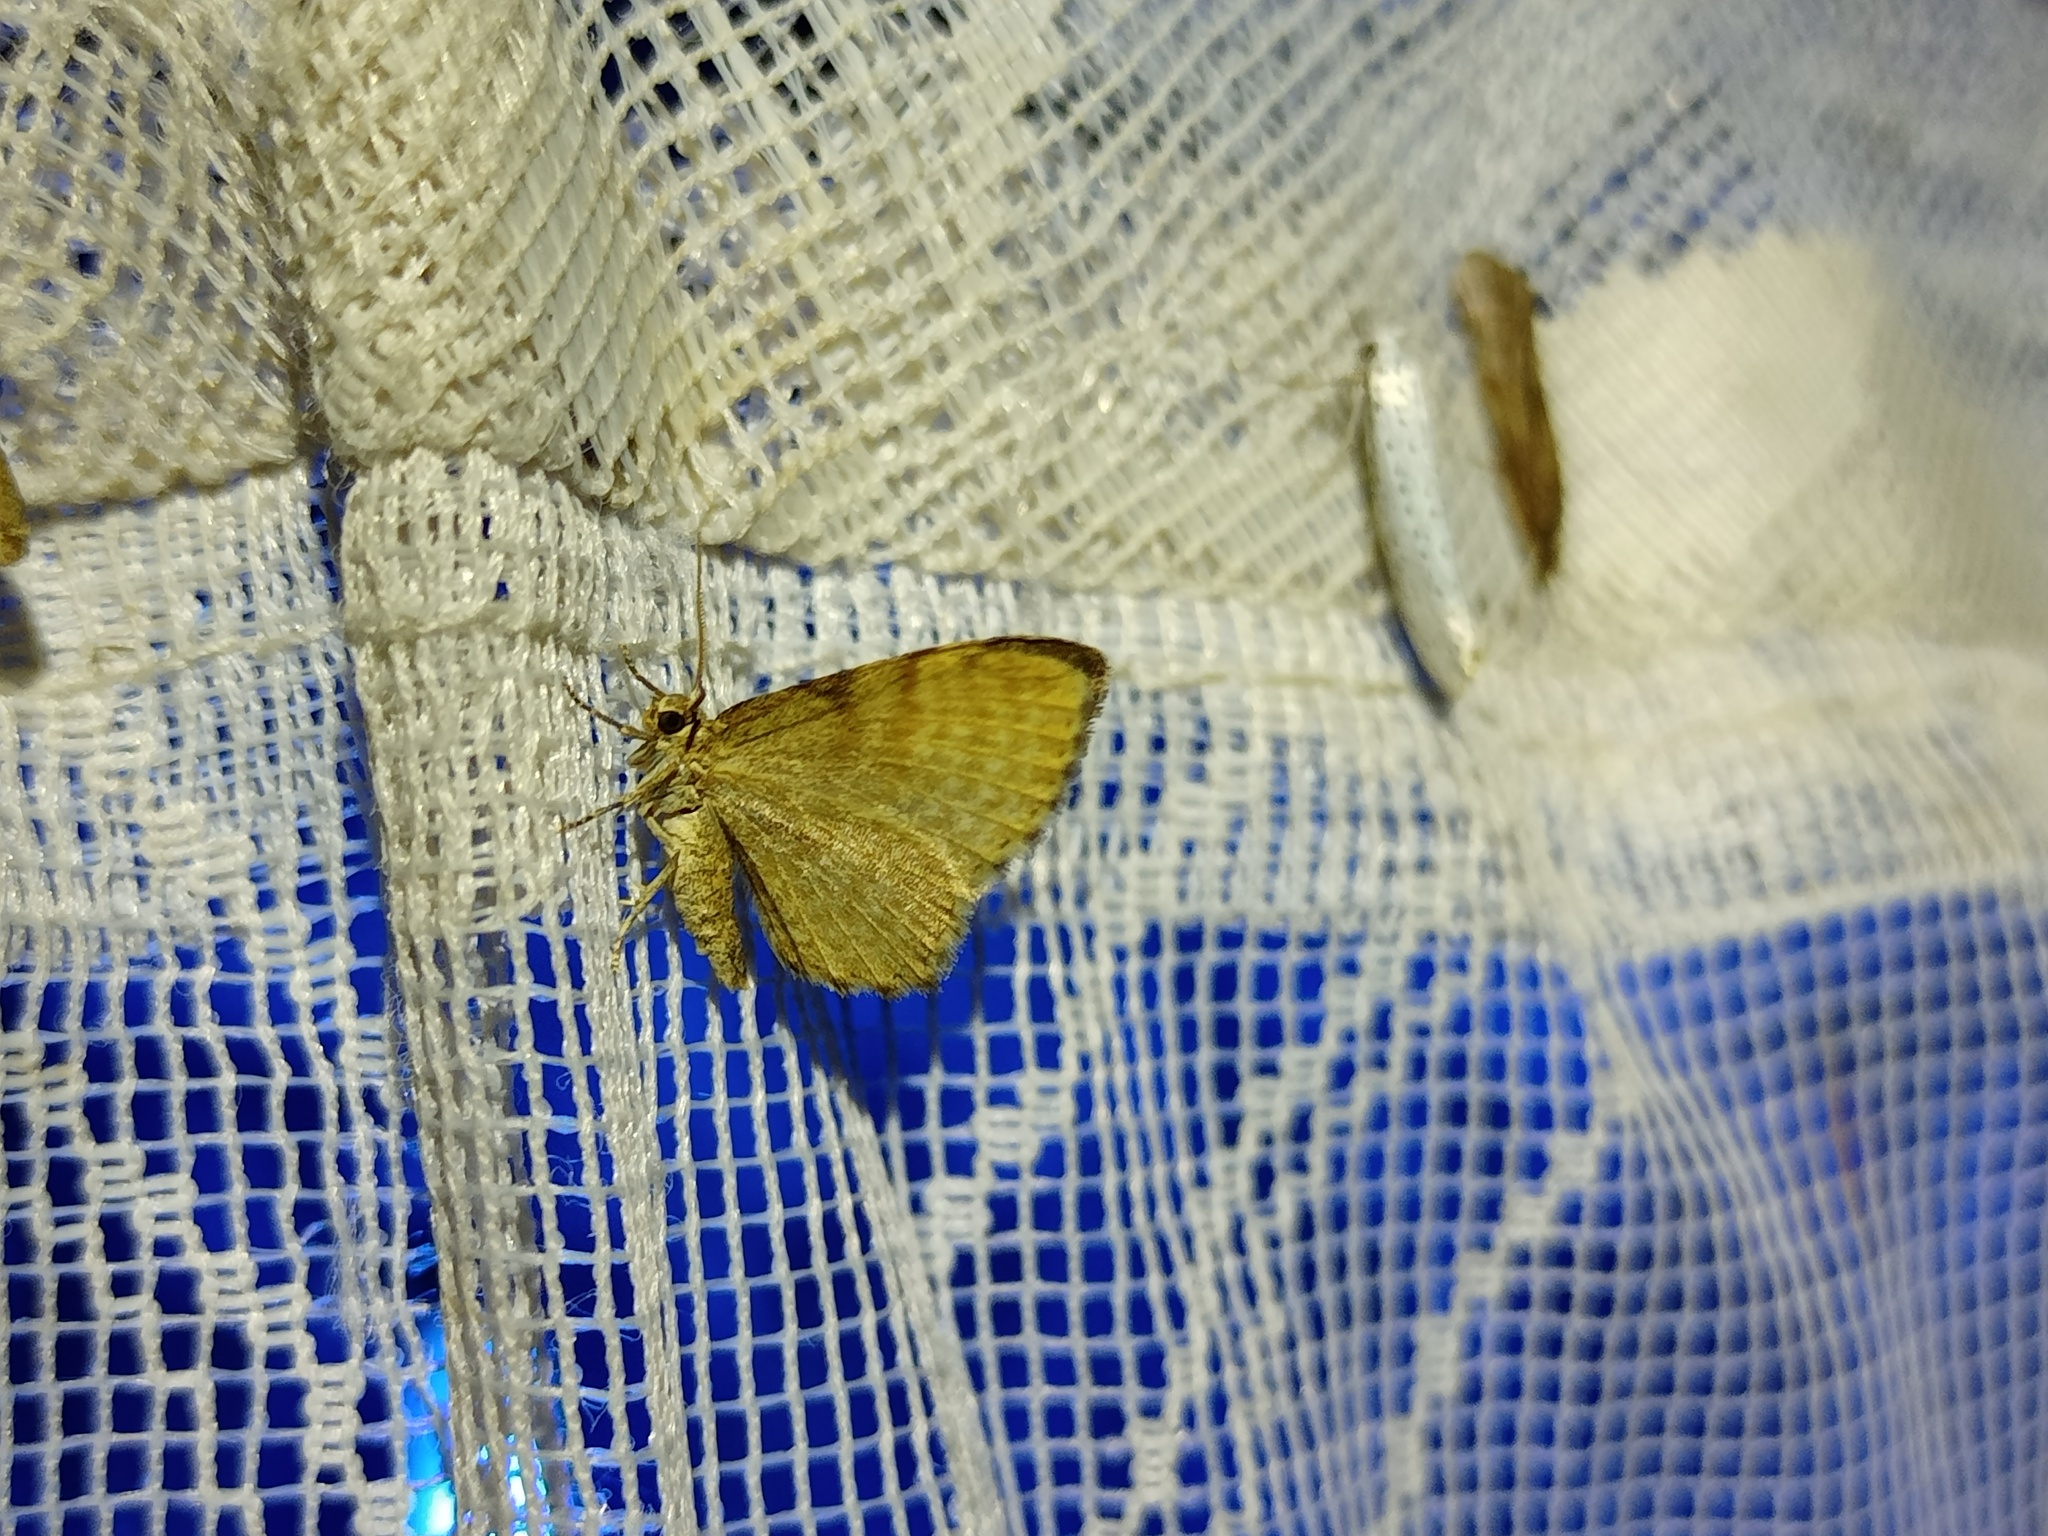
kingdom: Animalia
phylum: Arthropoda
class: Insecta
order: Lepidoptera
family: Geometridae
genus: Euchoeca
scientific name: Euchoeca nebulata
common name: Dingy shell
